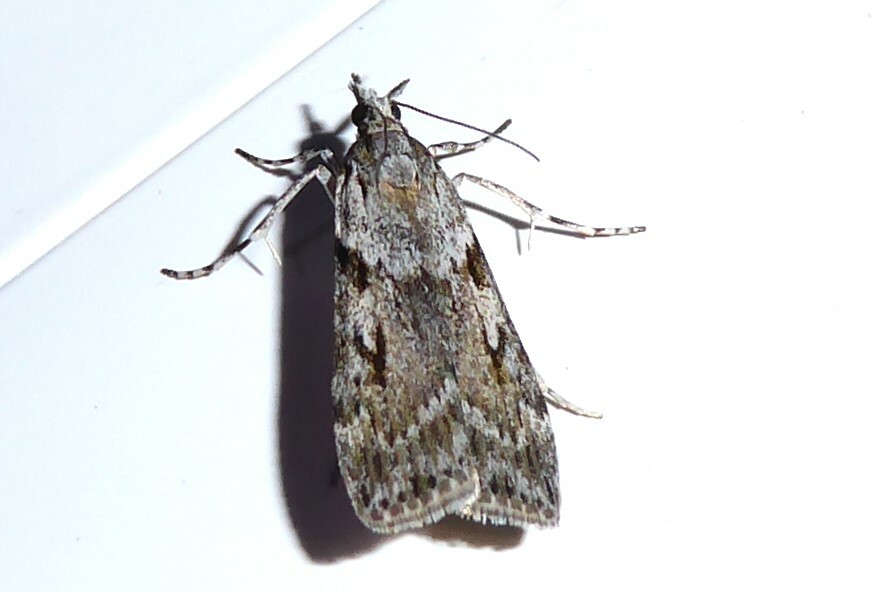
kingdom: Animalia
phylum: Arthropoda
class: Insecta
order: Lepidoptera
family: Crambidae
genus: Scoparia
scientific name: Scoparia halopis
